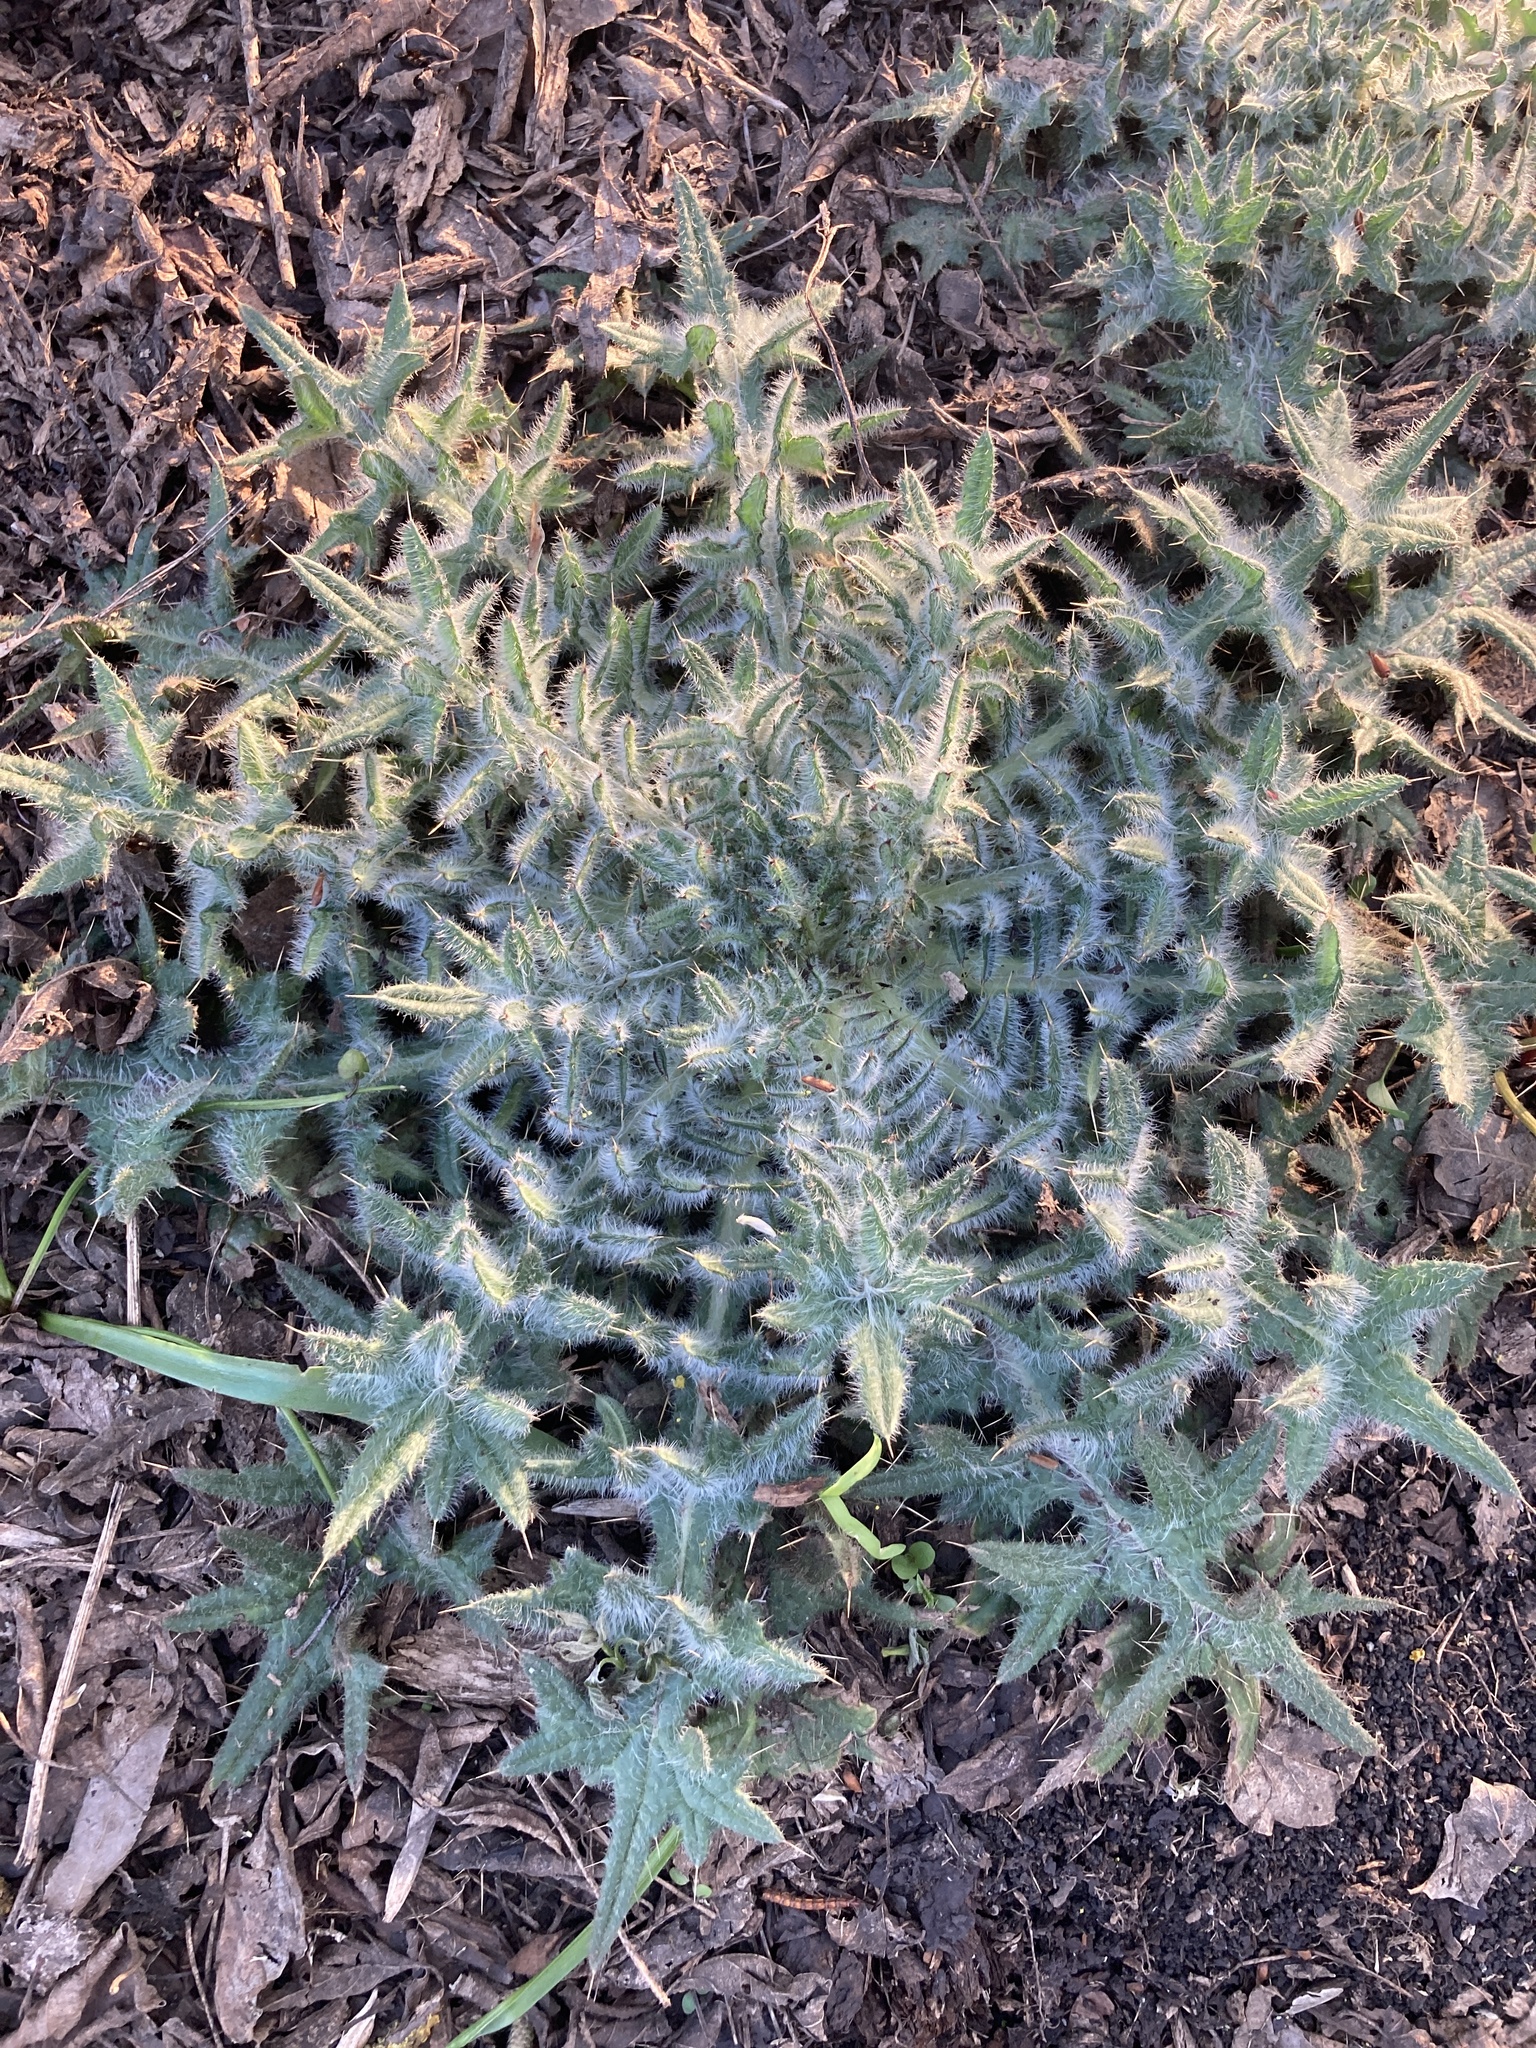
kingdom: Plantae
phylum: Tracheophyta
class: Magnoliopsida
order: Asterales
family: Asteraceae
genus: Cirsium
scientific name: Cirsium vulgare
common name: Bull thistle
